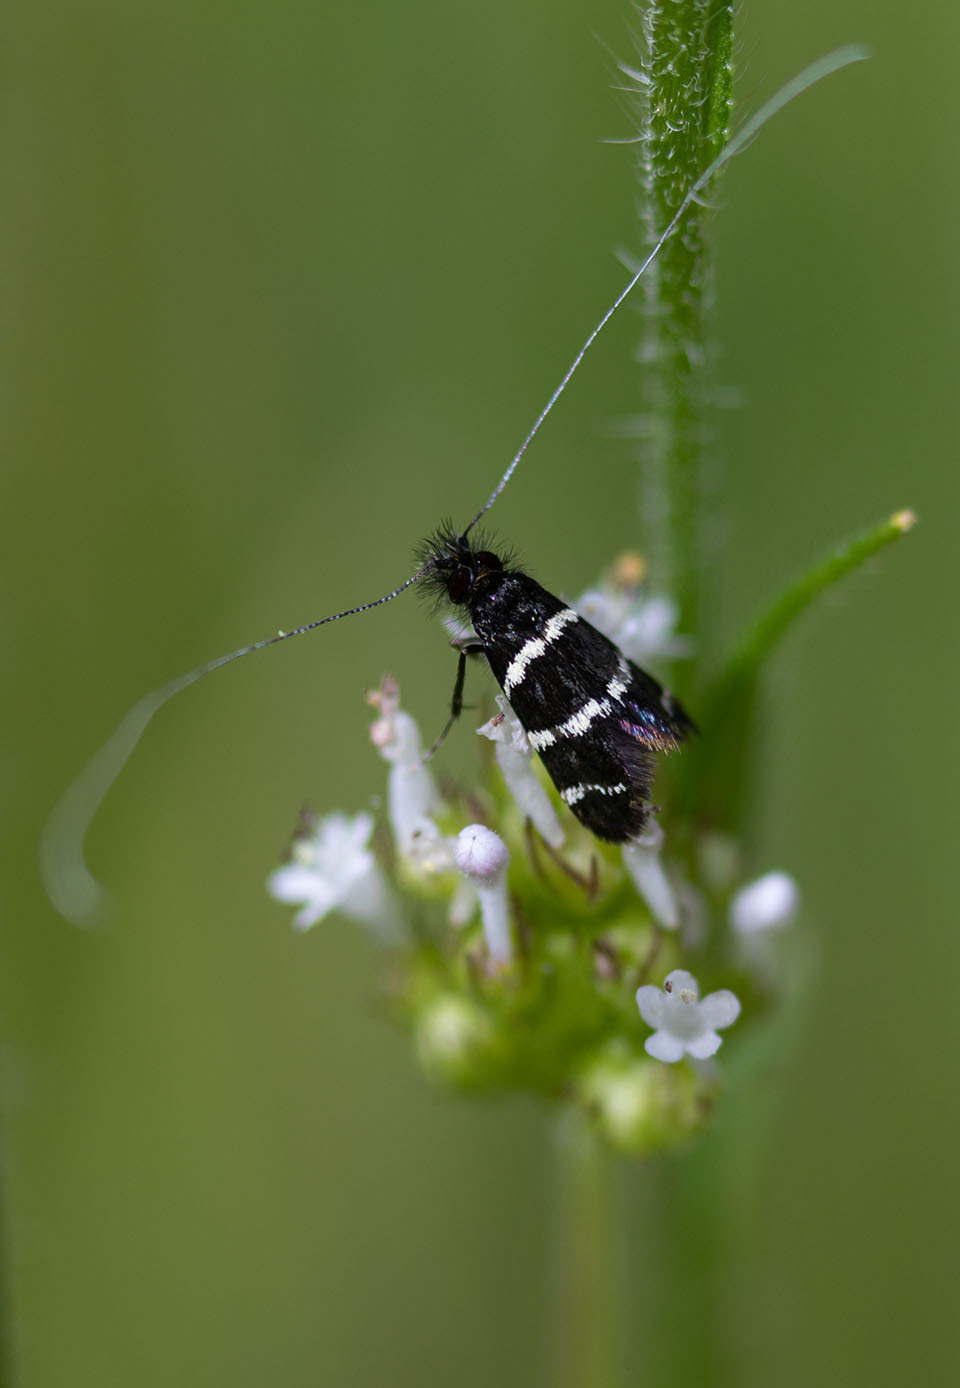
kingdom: Animalia
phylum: Arthropoda
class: Insecta
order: Lepidoptera
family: Adelidae
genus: Adela
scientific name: Adela trigrapha
